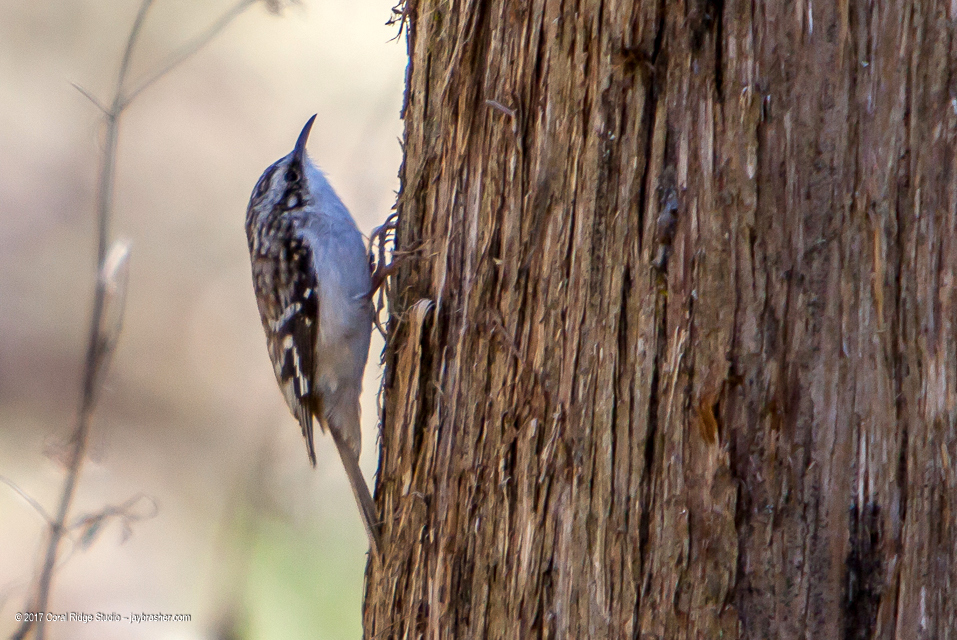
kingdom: Animalia
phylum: Chordata
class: Aves
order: Passeriformes
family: Certhiidae
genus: Certhia
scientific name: Certhia americana
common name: Brown creeper
